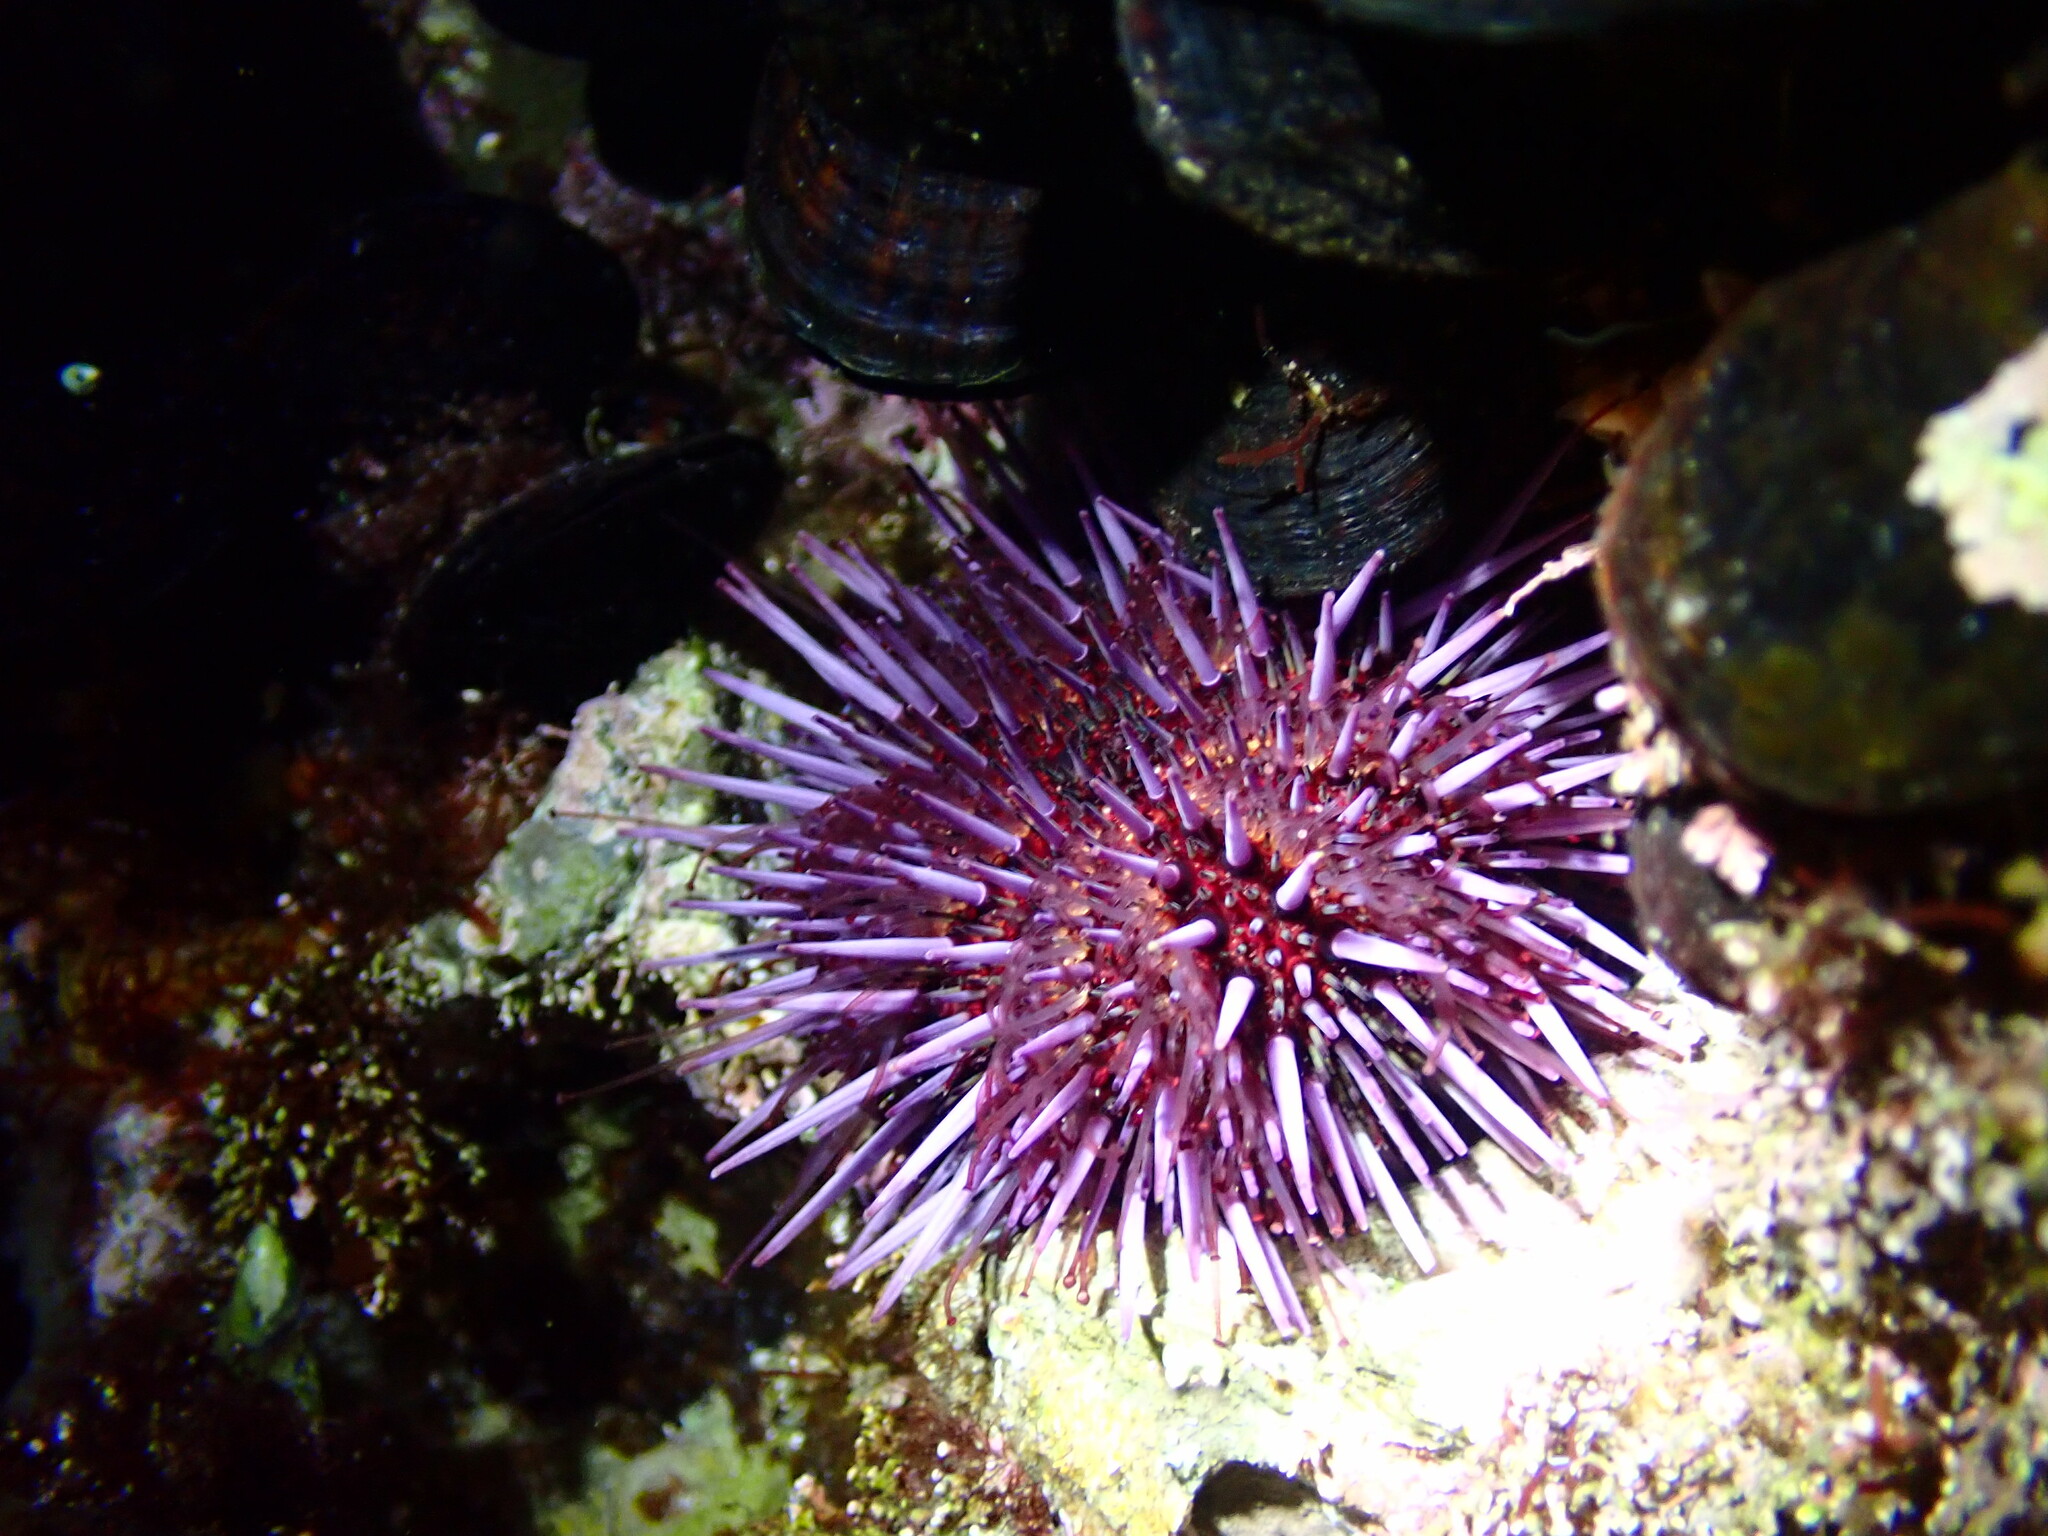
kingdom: Animalia
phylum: Echinodermata
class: Echinoidea
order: Camarodonta
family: Strongylocentrotidae
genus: Strongylocentrotus
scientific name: Strongylocentrotus purpuratus
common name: Purple sea urchin
